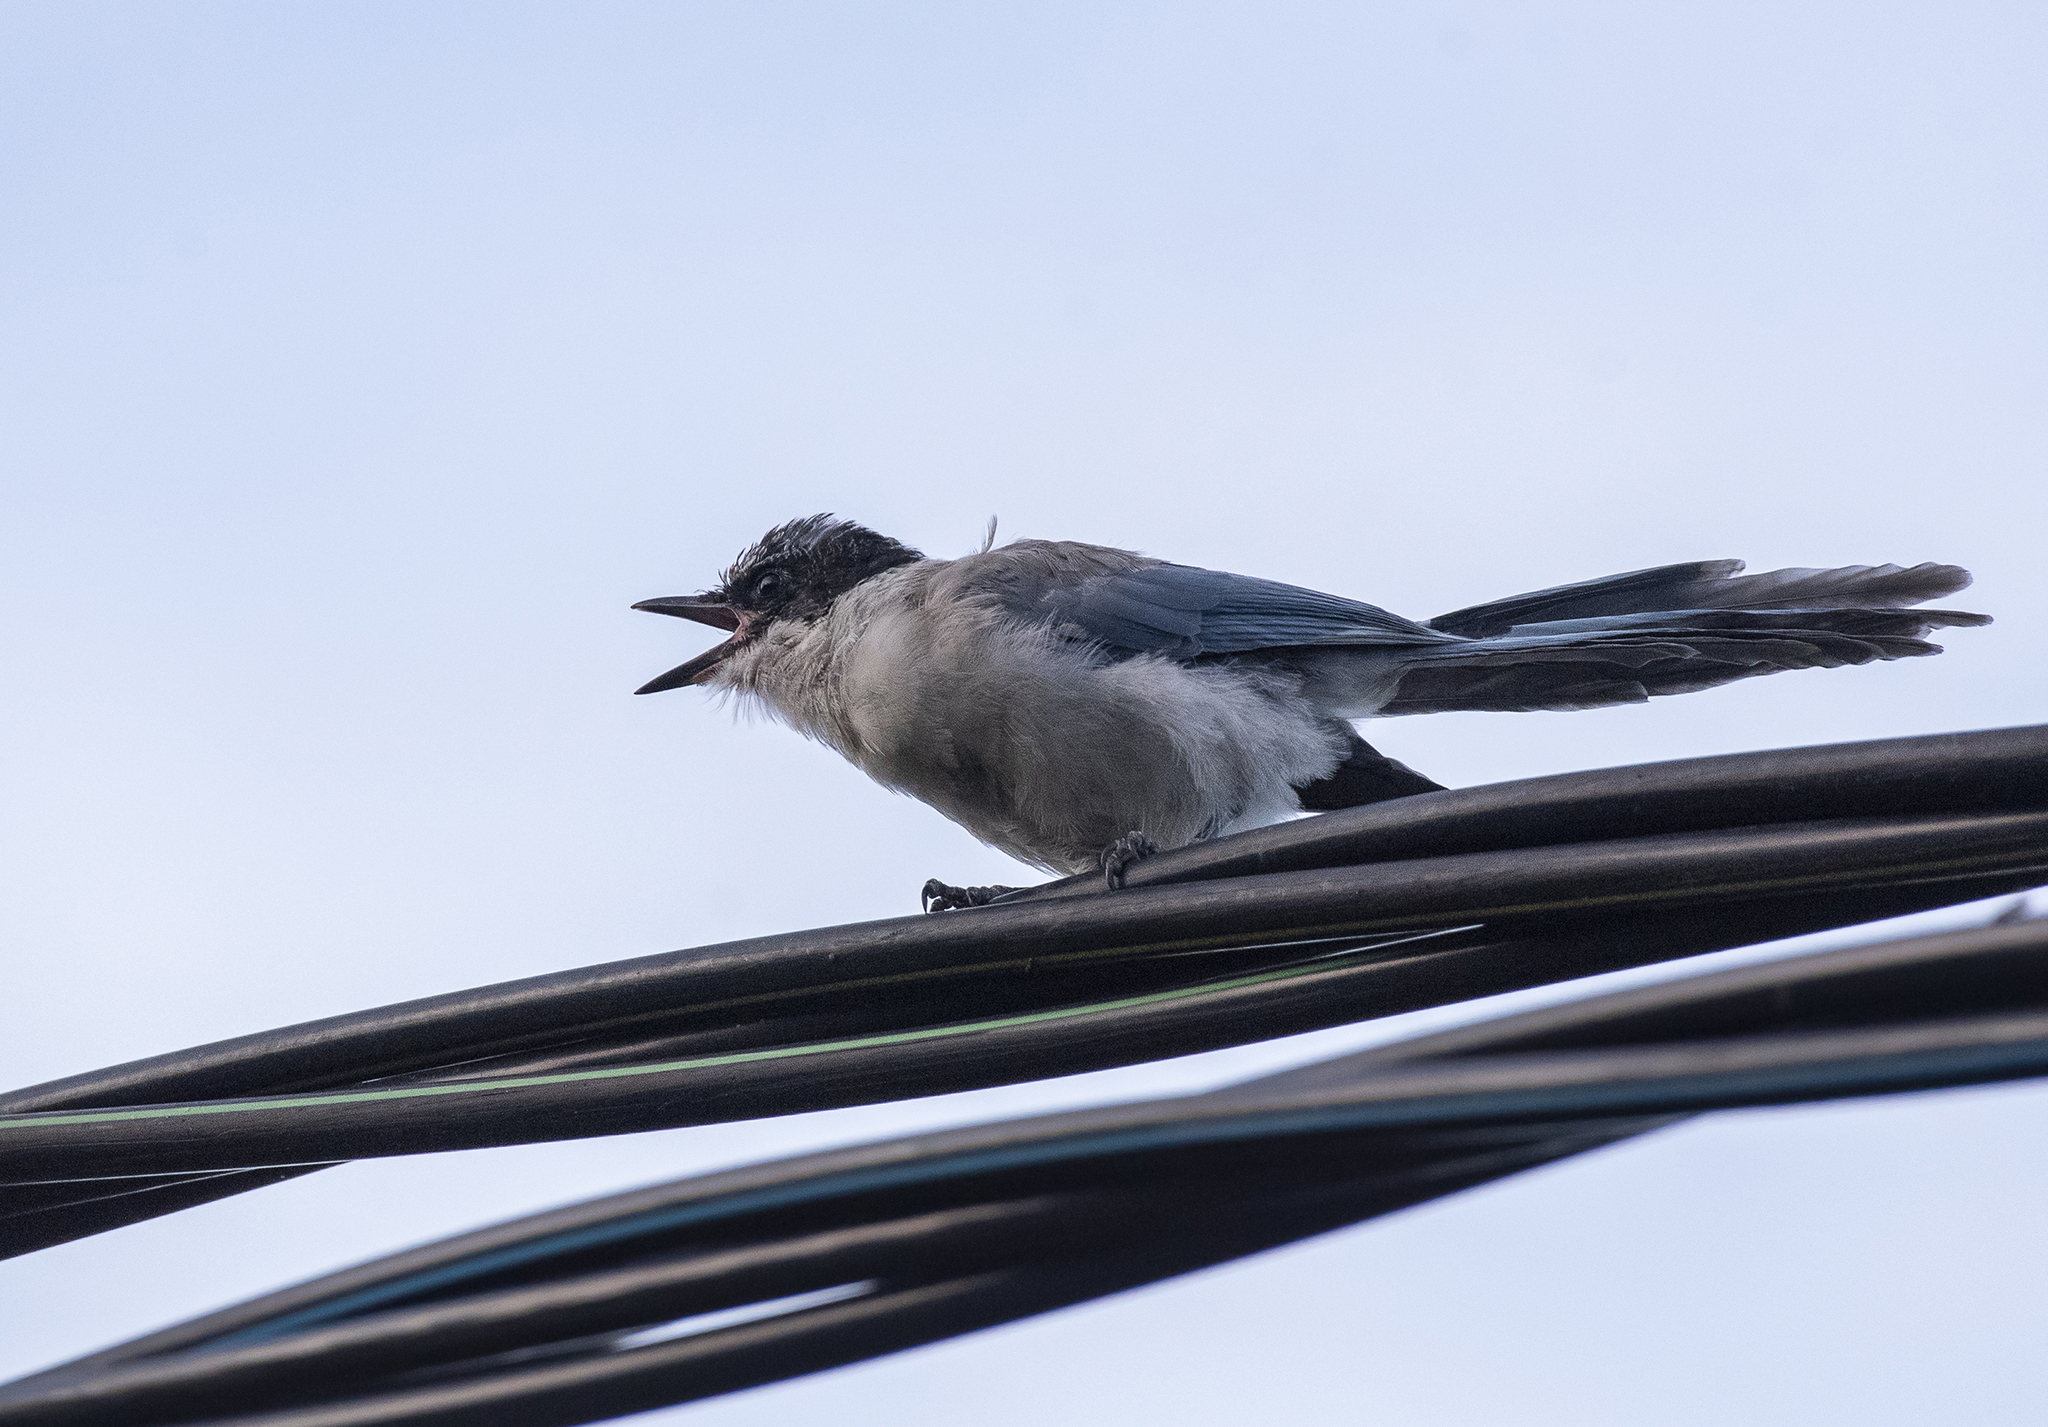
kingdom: Animalia
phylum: Chordata
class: Aves
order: Passeriformes
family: Corvidae
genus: Cyanopica
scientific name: Cyanopica cyanus
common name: Azure-winged magpie
